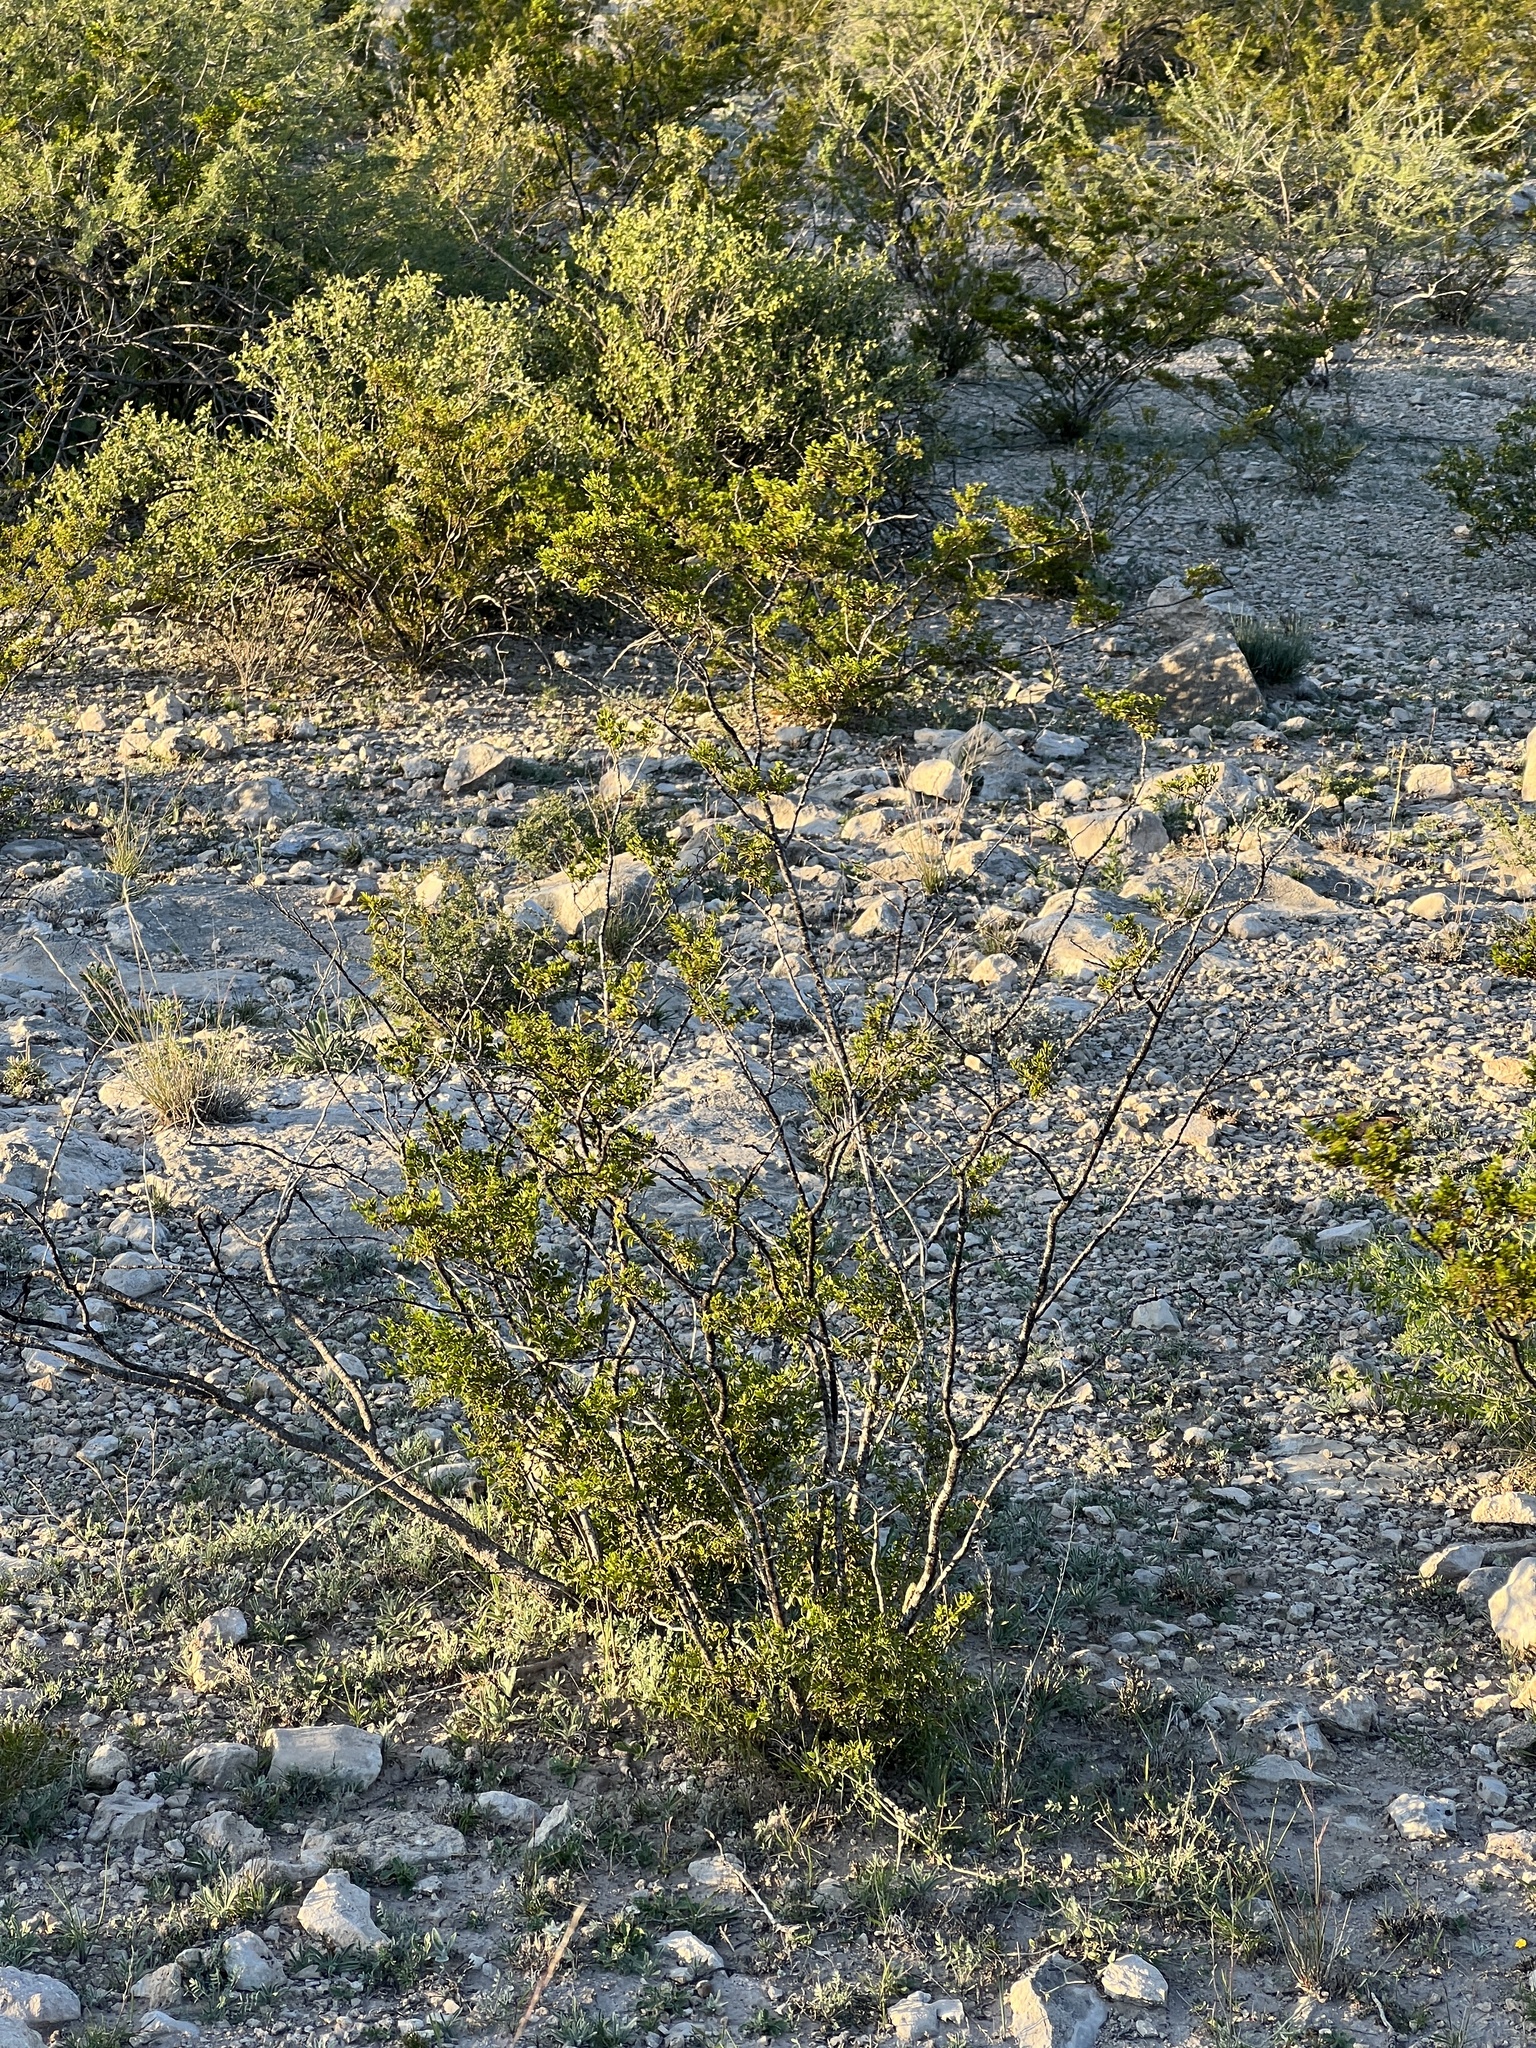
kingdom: Plantae
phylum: Tracheophyta
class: Magnoliopsida
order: Zygophyllales
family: Zygophyllaceae
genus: Larrea
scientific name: Larrea tridentata
